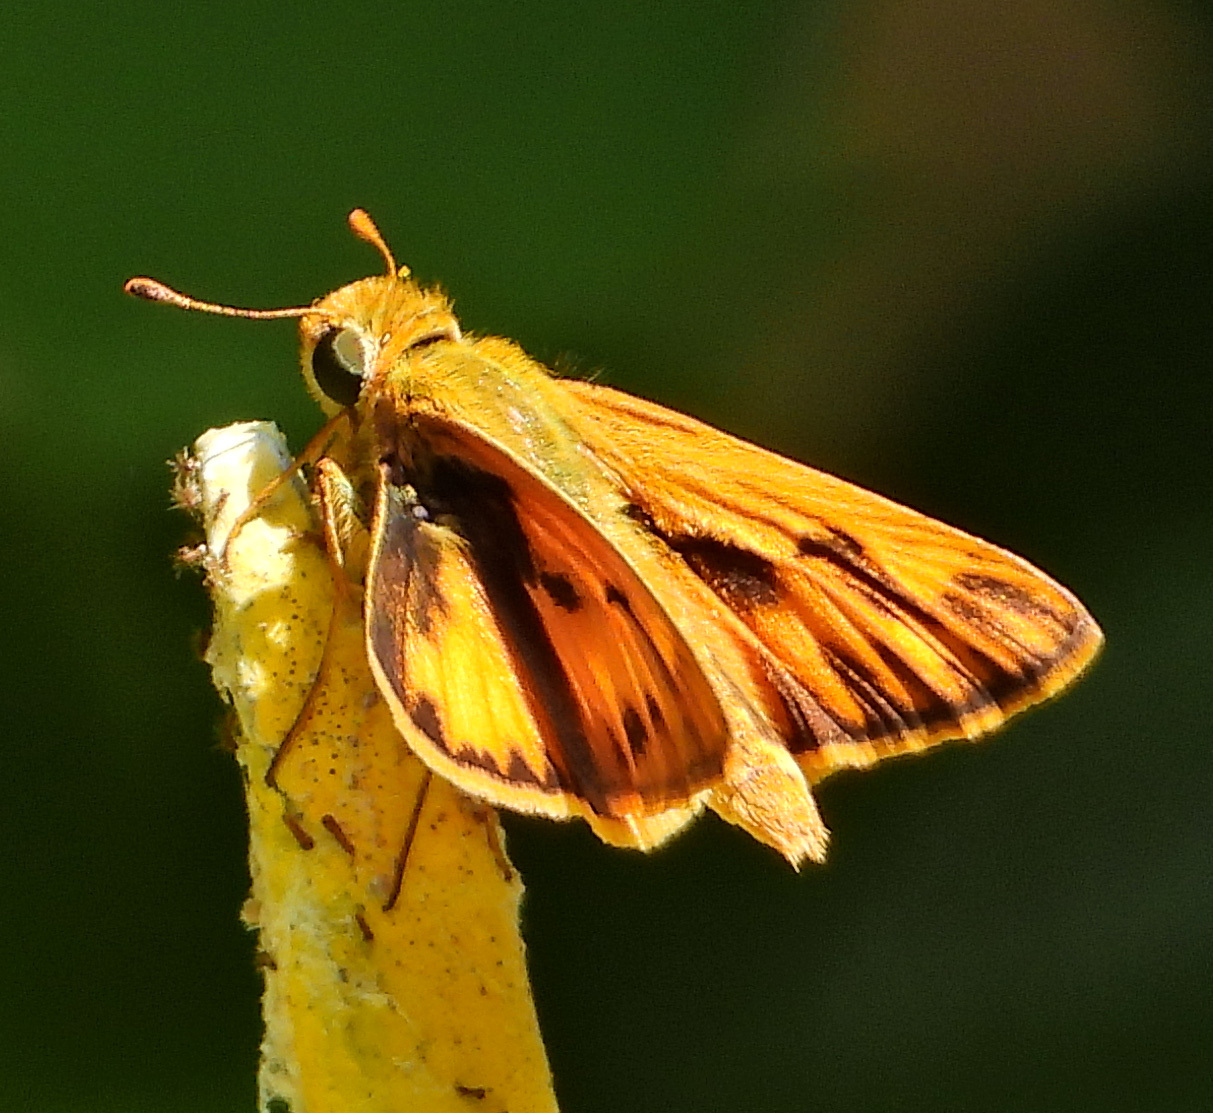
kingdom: Animalia
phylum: Arthropoda
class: Insecta
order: Lepidoptera
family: Hesperiidae
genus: Hylephila
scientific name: Hylephila phyleus
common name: Fiery skipper
